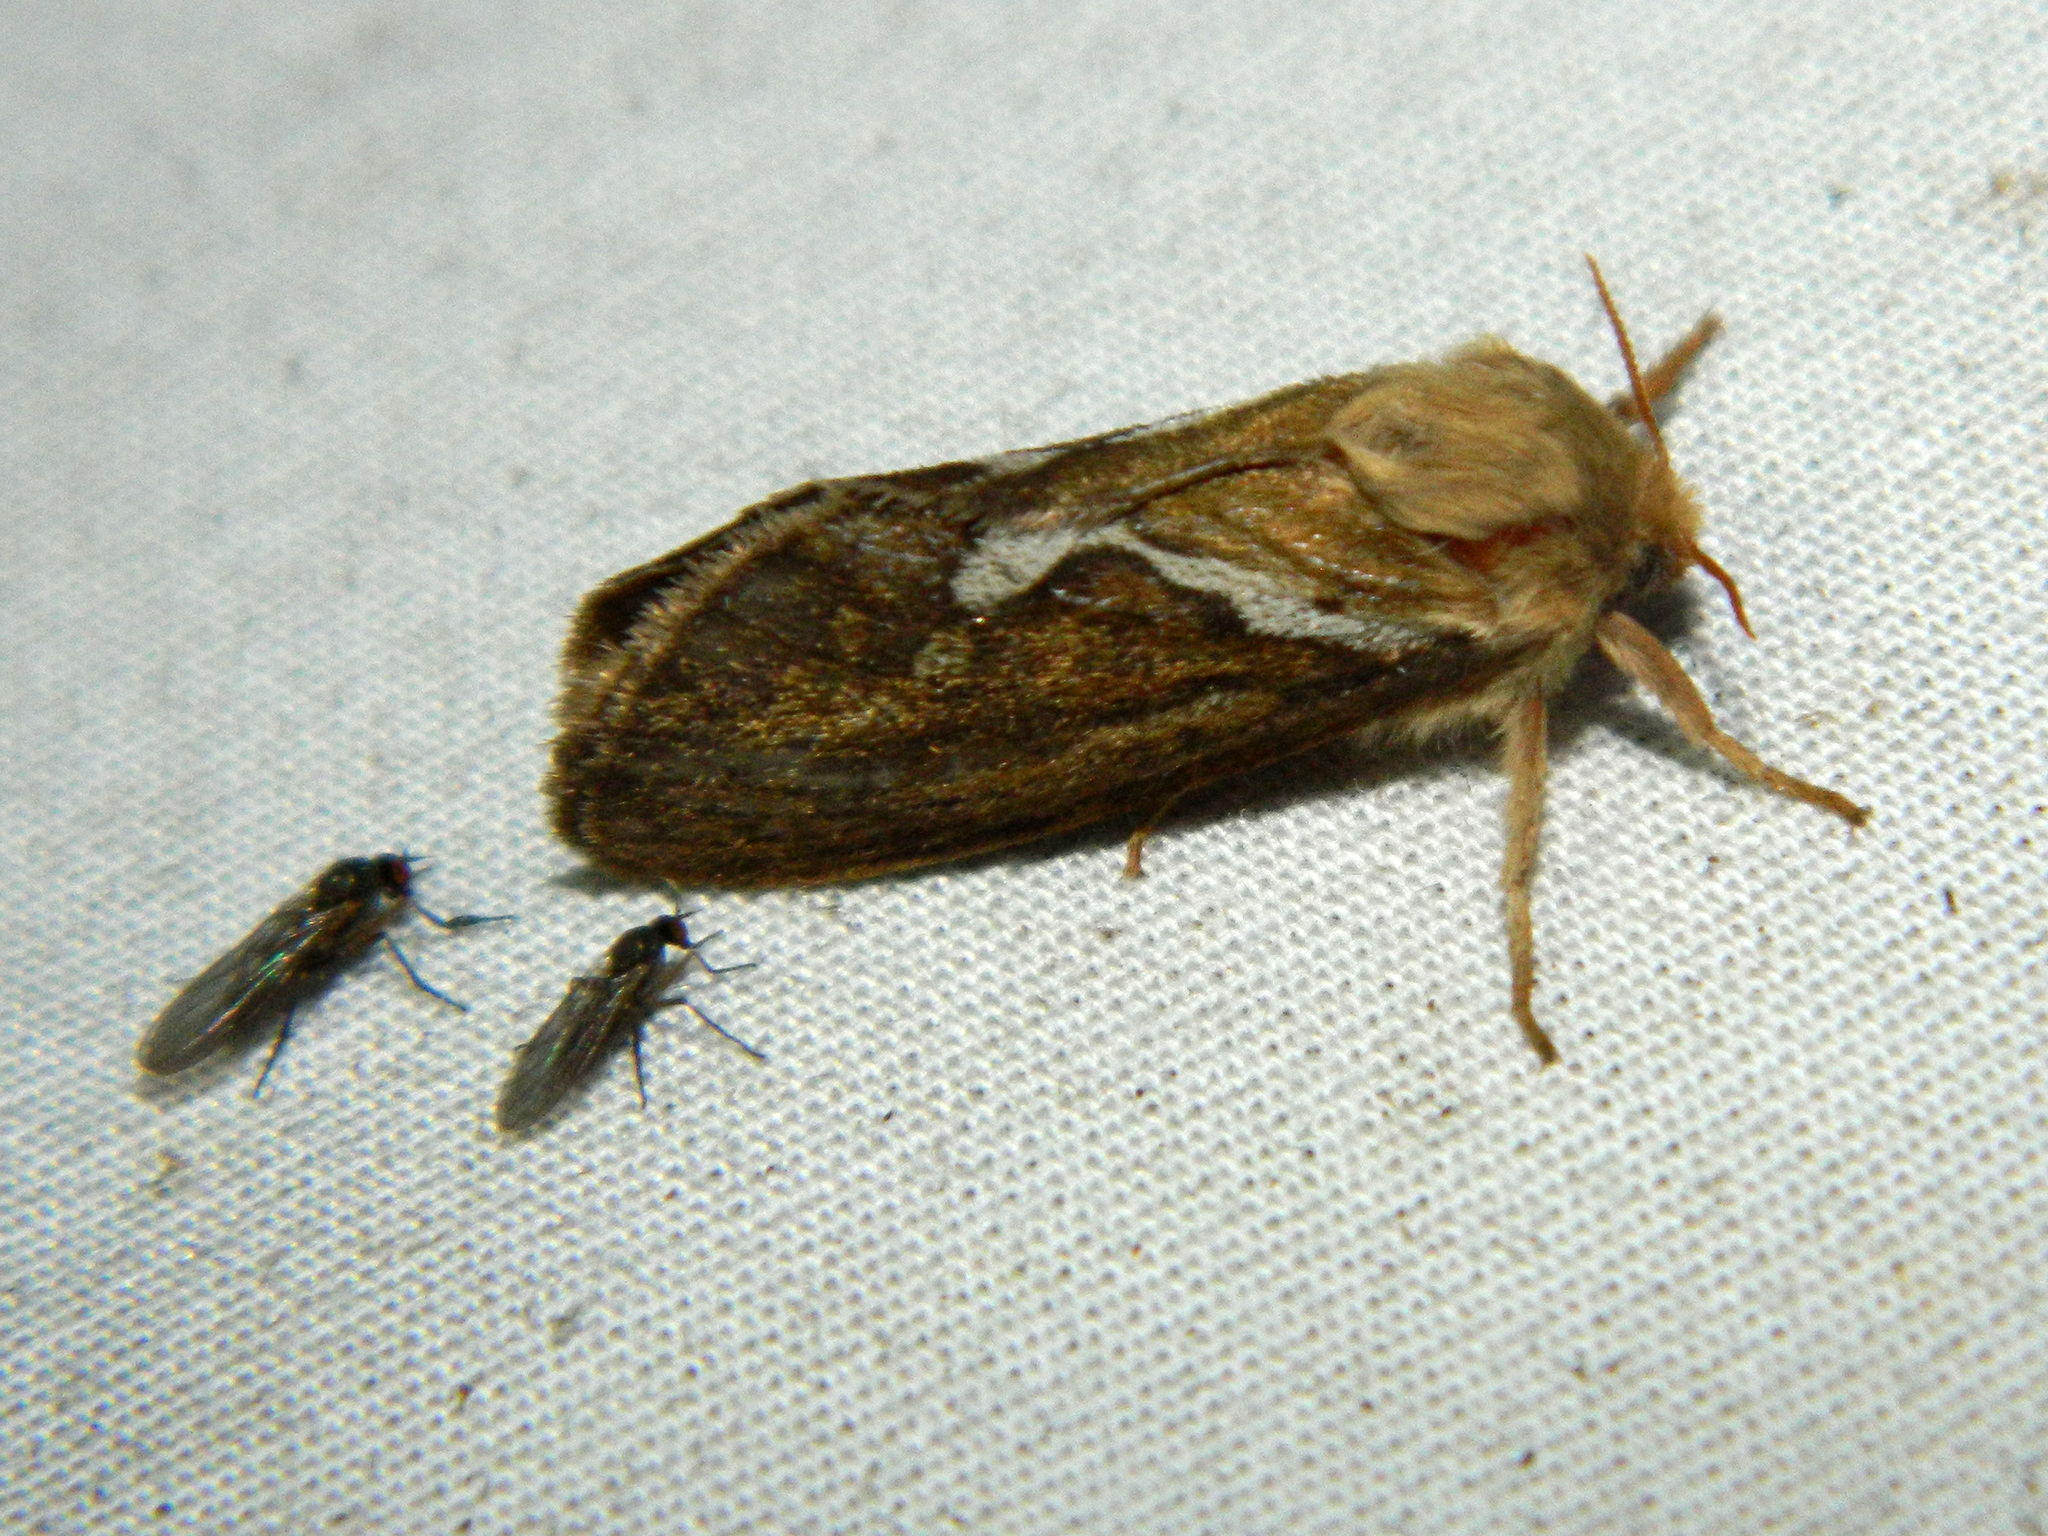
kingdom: Animalia
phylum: Arthropoda
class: Insecta
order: Lepidoptera
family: Hepialidae
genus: Korscheltellus
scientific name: Korscheltellus lupulina
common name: Common swift
